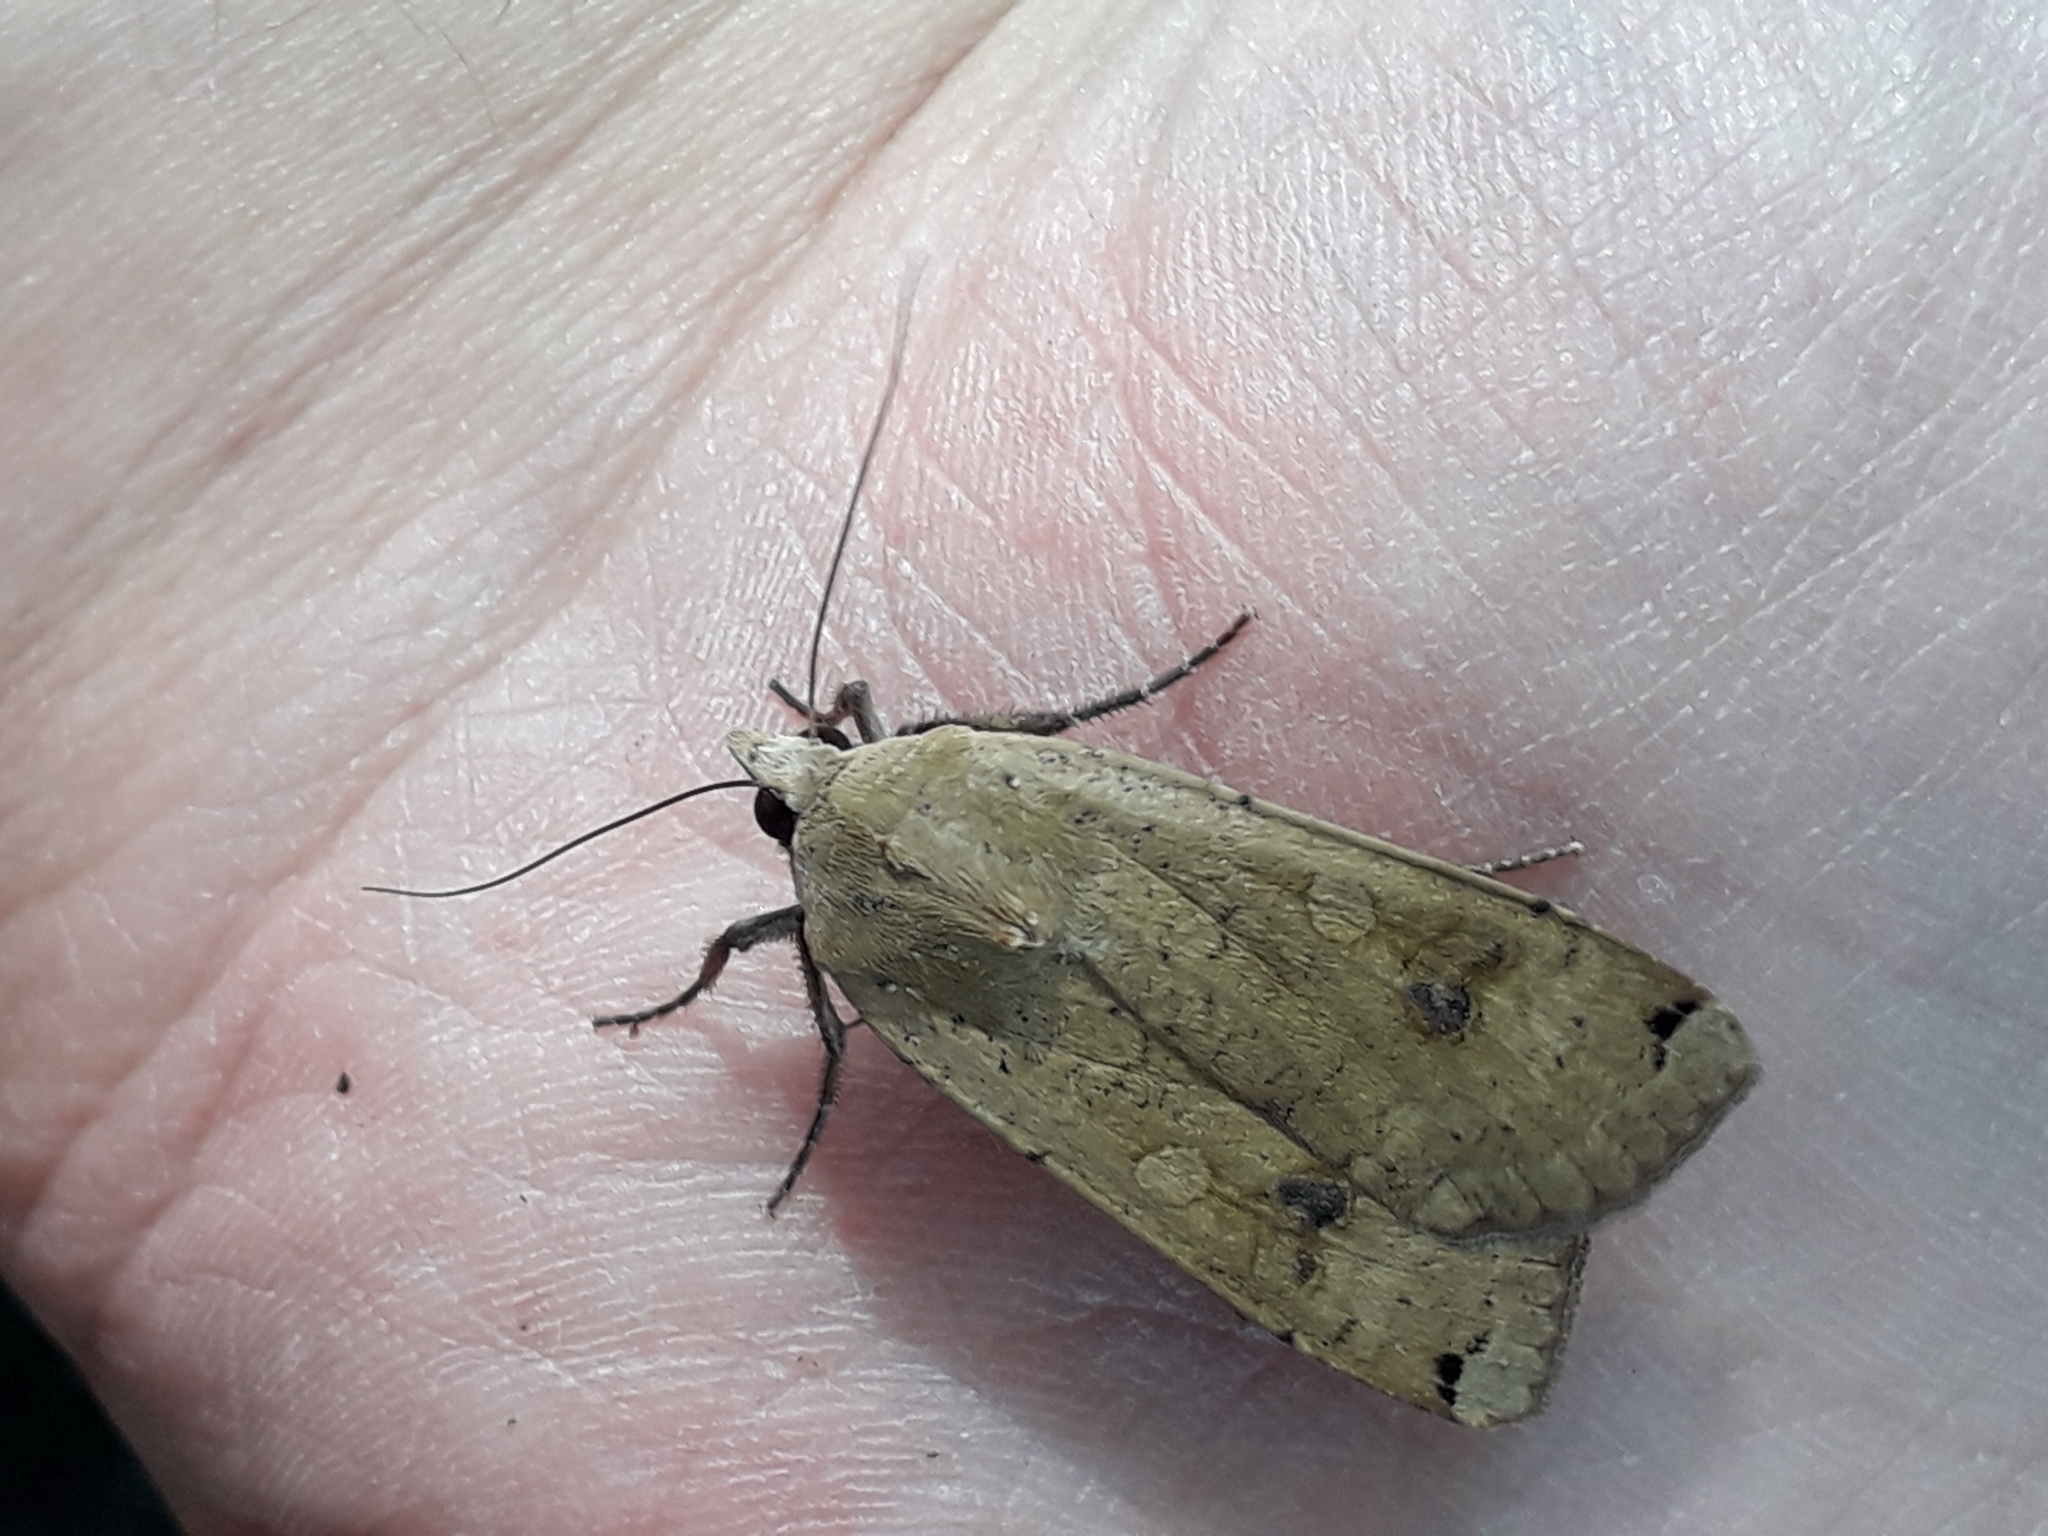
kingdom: Animalia
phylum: Arthropoda
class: Insecta
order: Lepidoptera
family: Noctuidae
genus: Noctua
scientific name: Noctua pronuba
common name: Large yellow underwing
